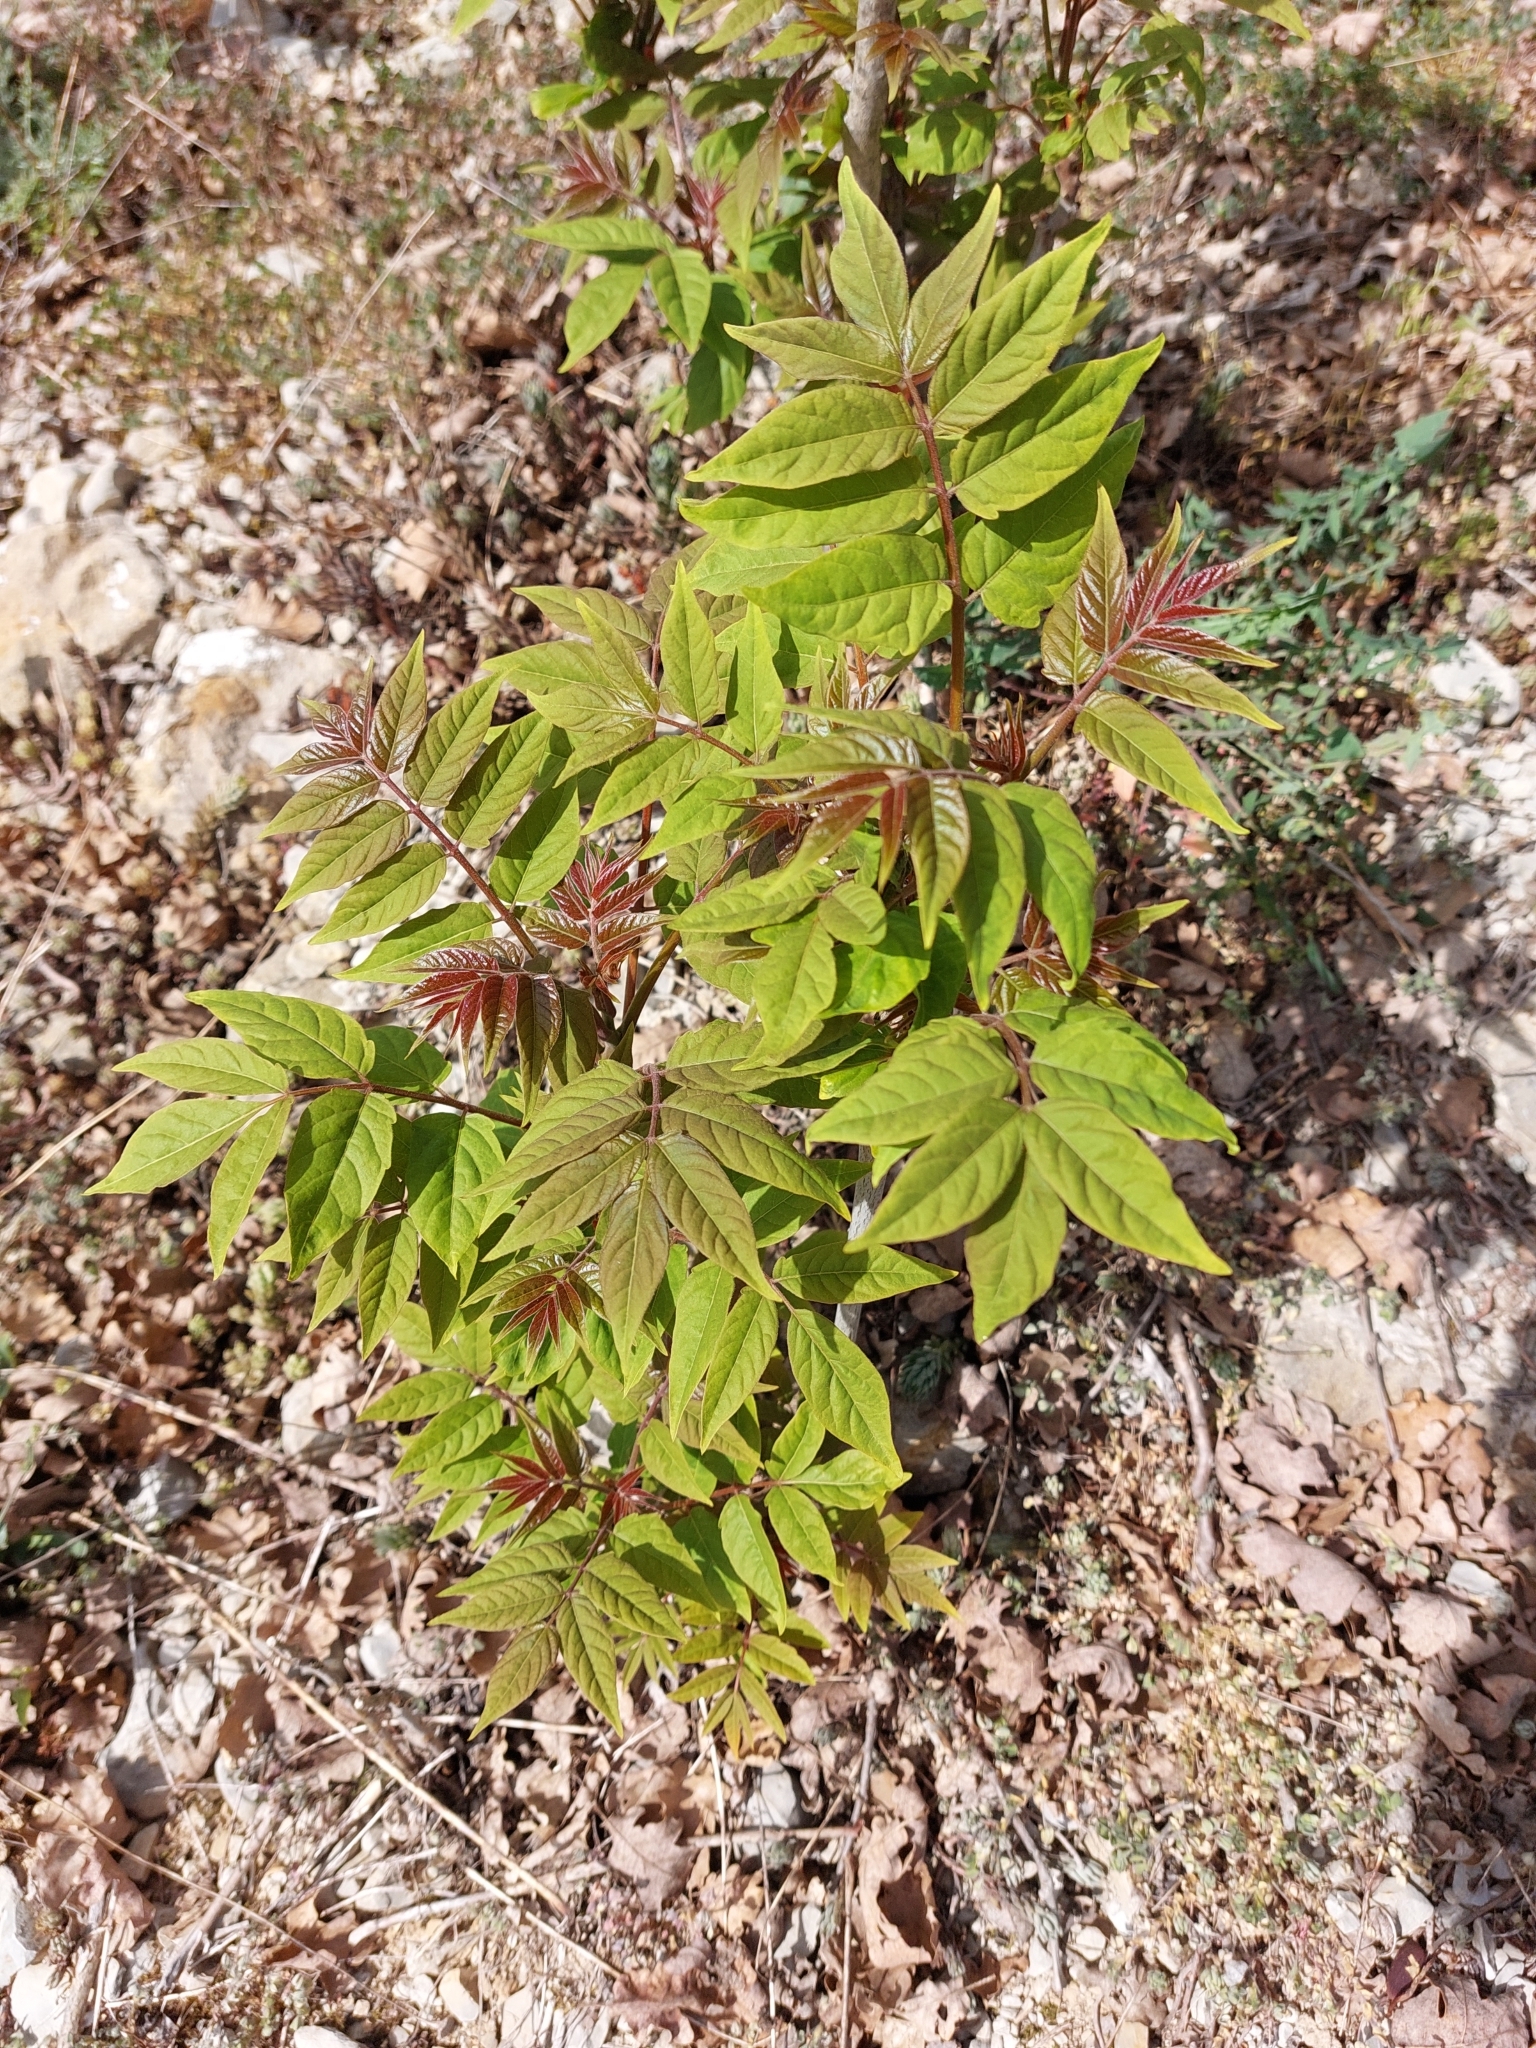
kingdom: Plantae
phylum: Tracheophyta
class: Magnoliopsida
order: Sapindales
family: Simaroubaceae
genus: Ailanthus
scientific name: Ailanthus altissima
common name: Tree-of-heaven
